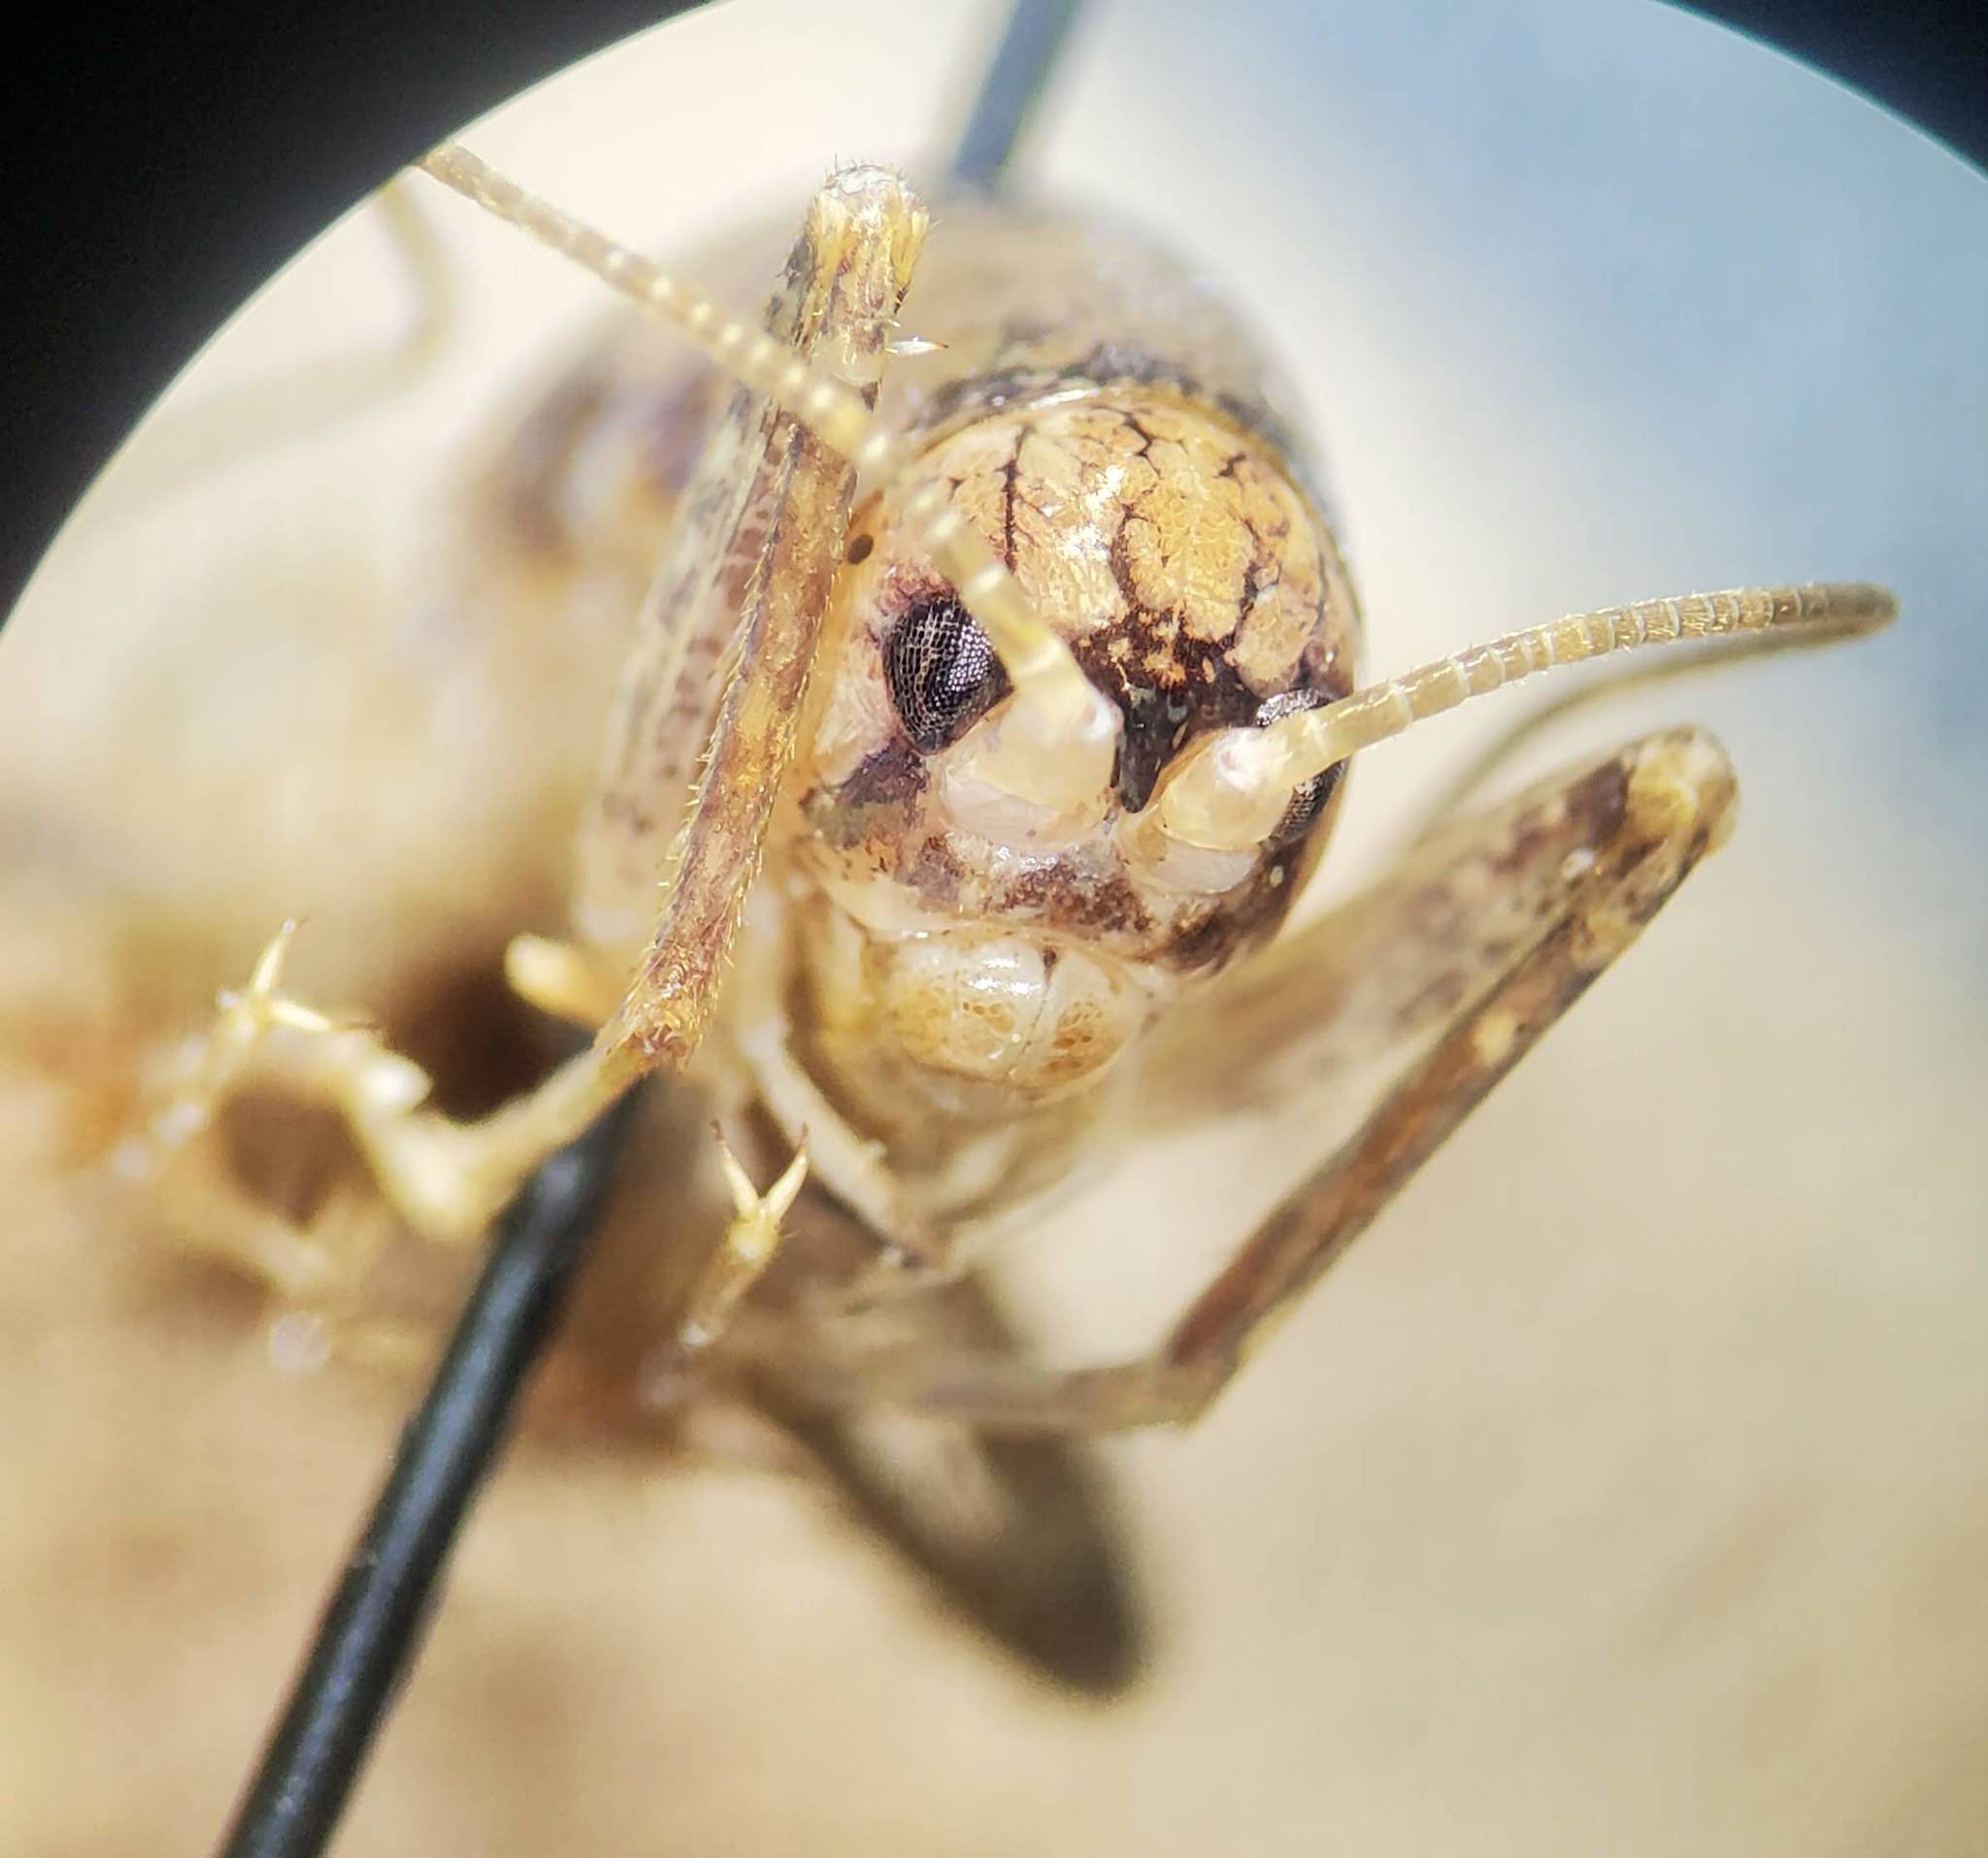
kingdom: Animalia
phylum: Arthropoda
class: Insecta
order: Orthoptera
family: Rhaphidophoridae
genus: Pristoceuthophilus
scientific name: Pristoceuthophilus
